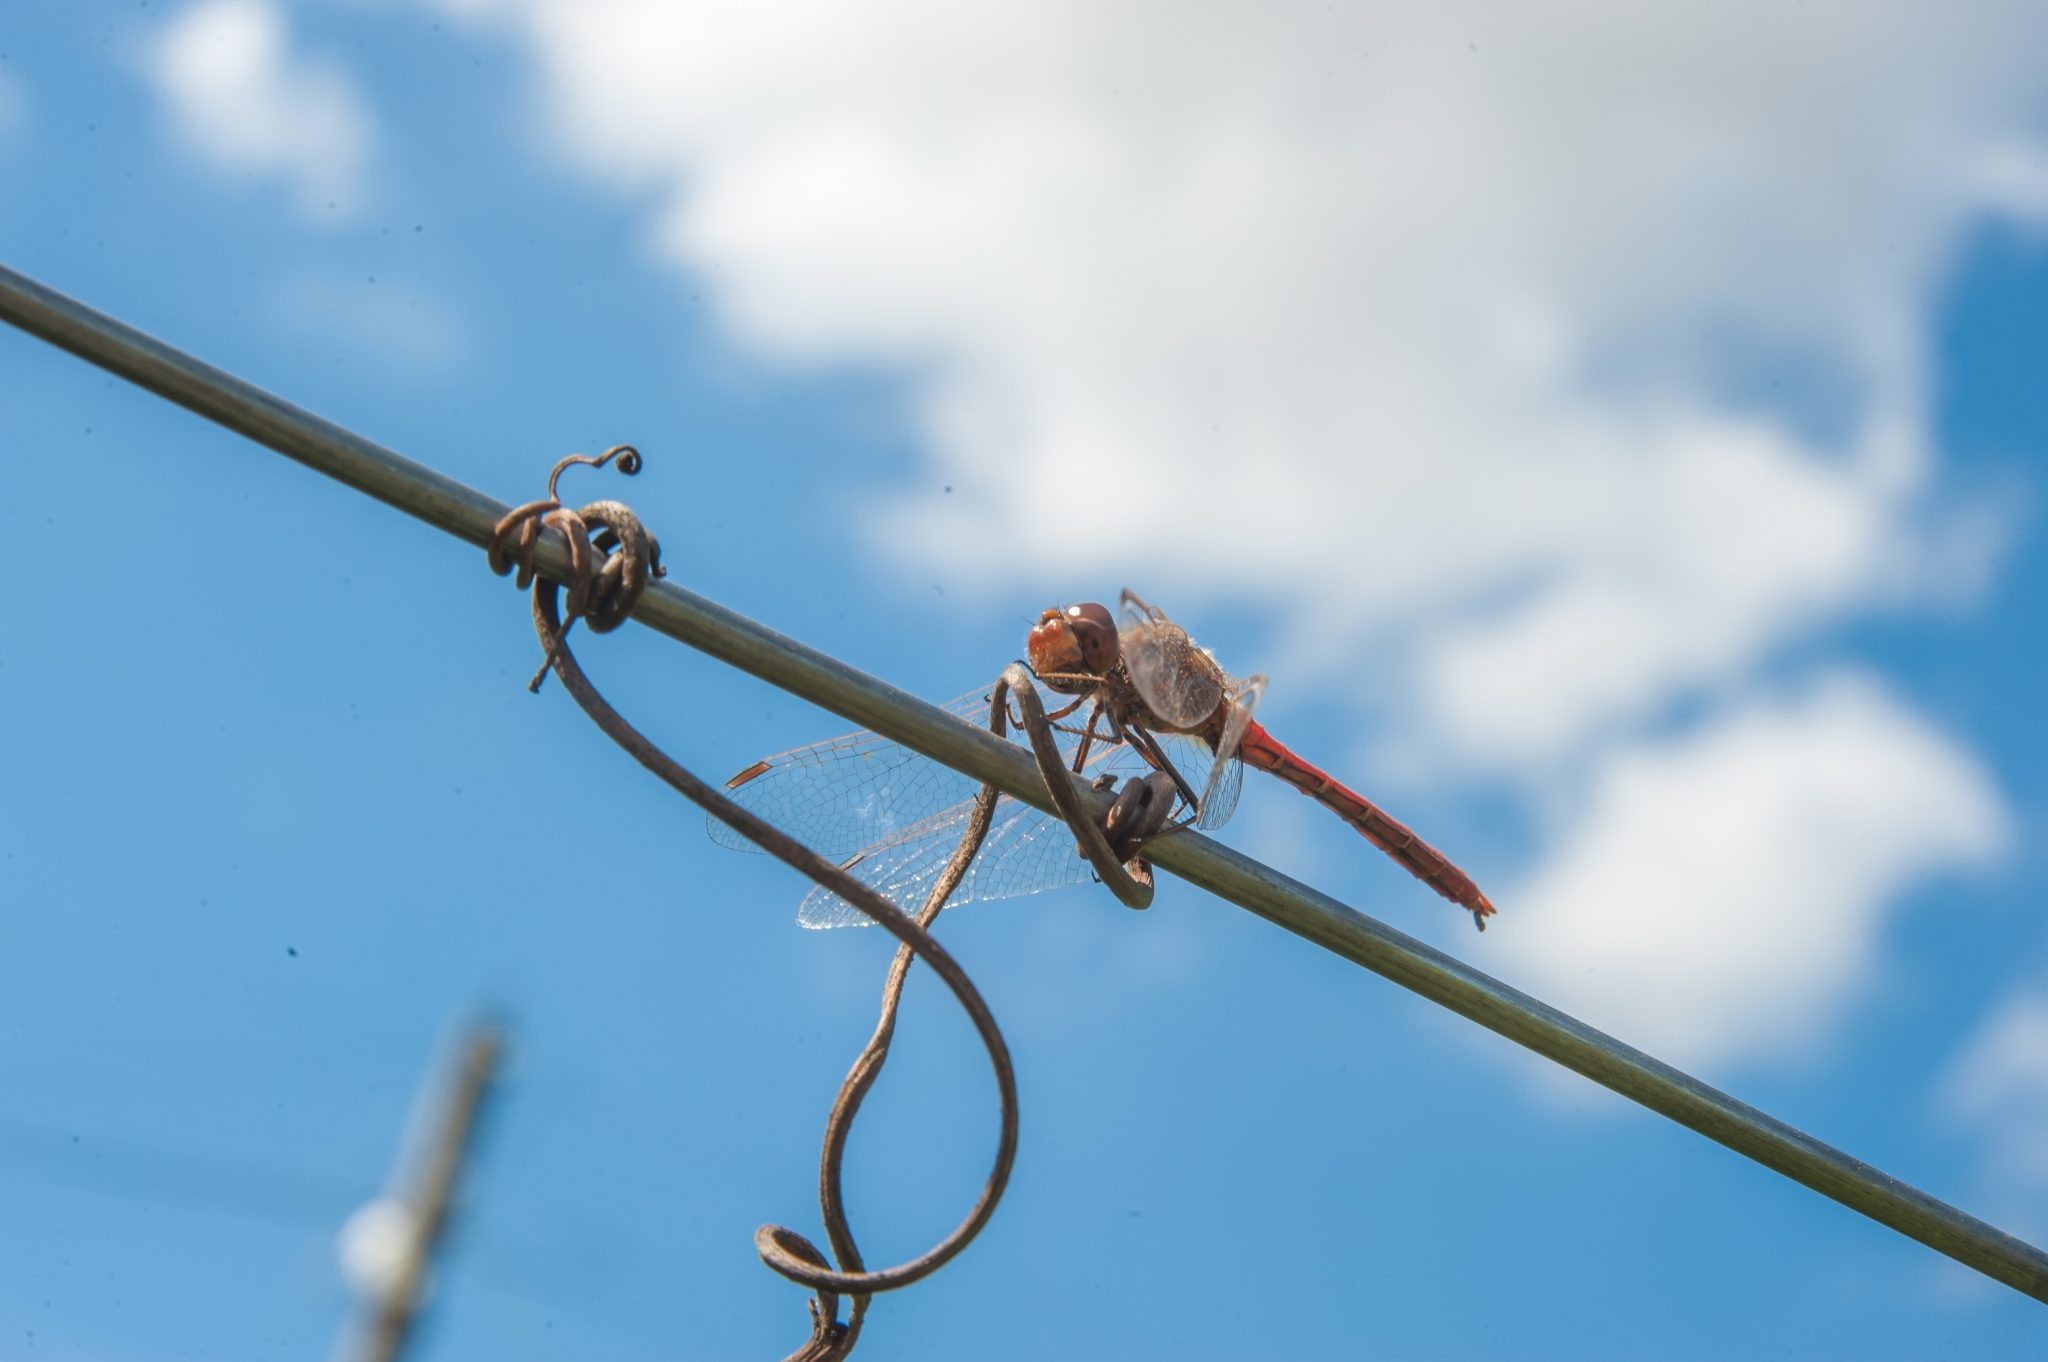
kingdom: Animalia
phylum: Arthropoda
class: Insecta
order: Odonata
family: Libellulidae
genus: Sympetrum
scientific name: Sympetrum vulgatum
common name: Vagrant darter
